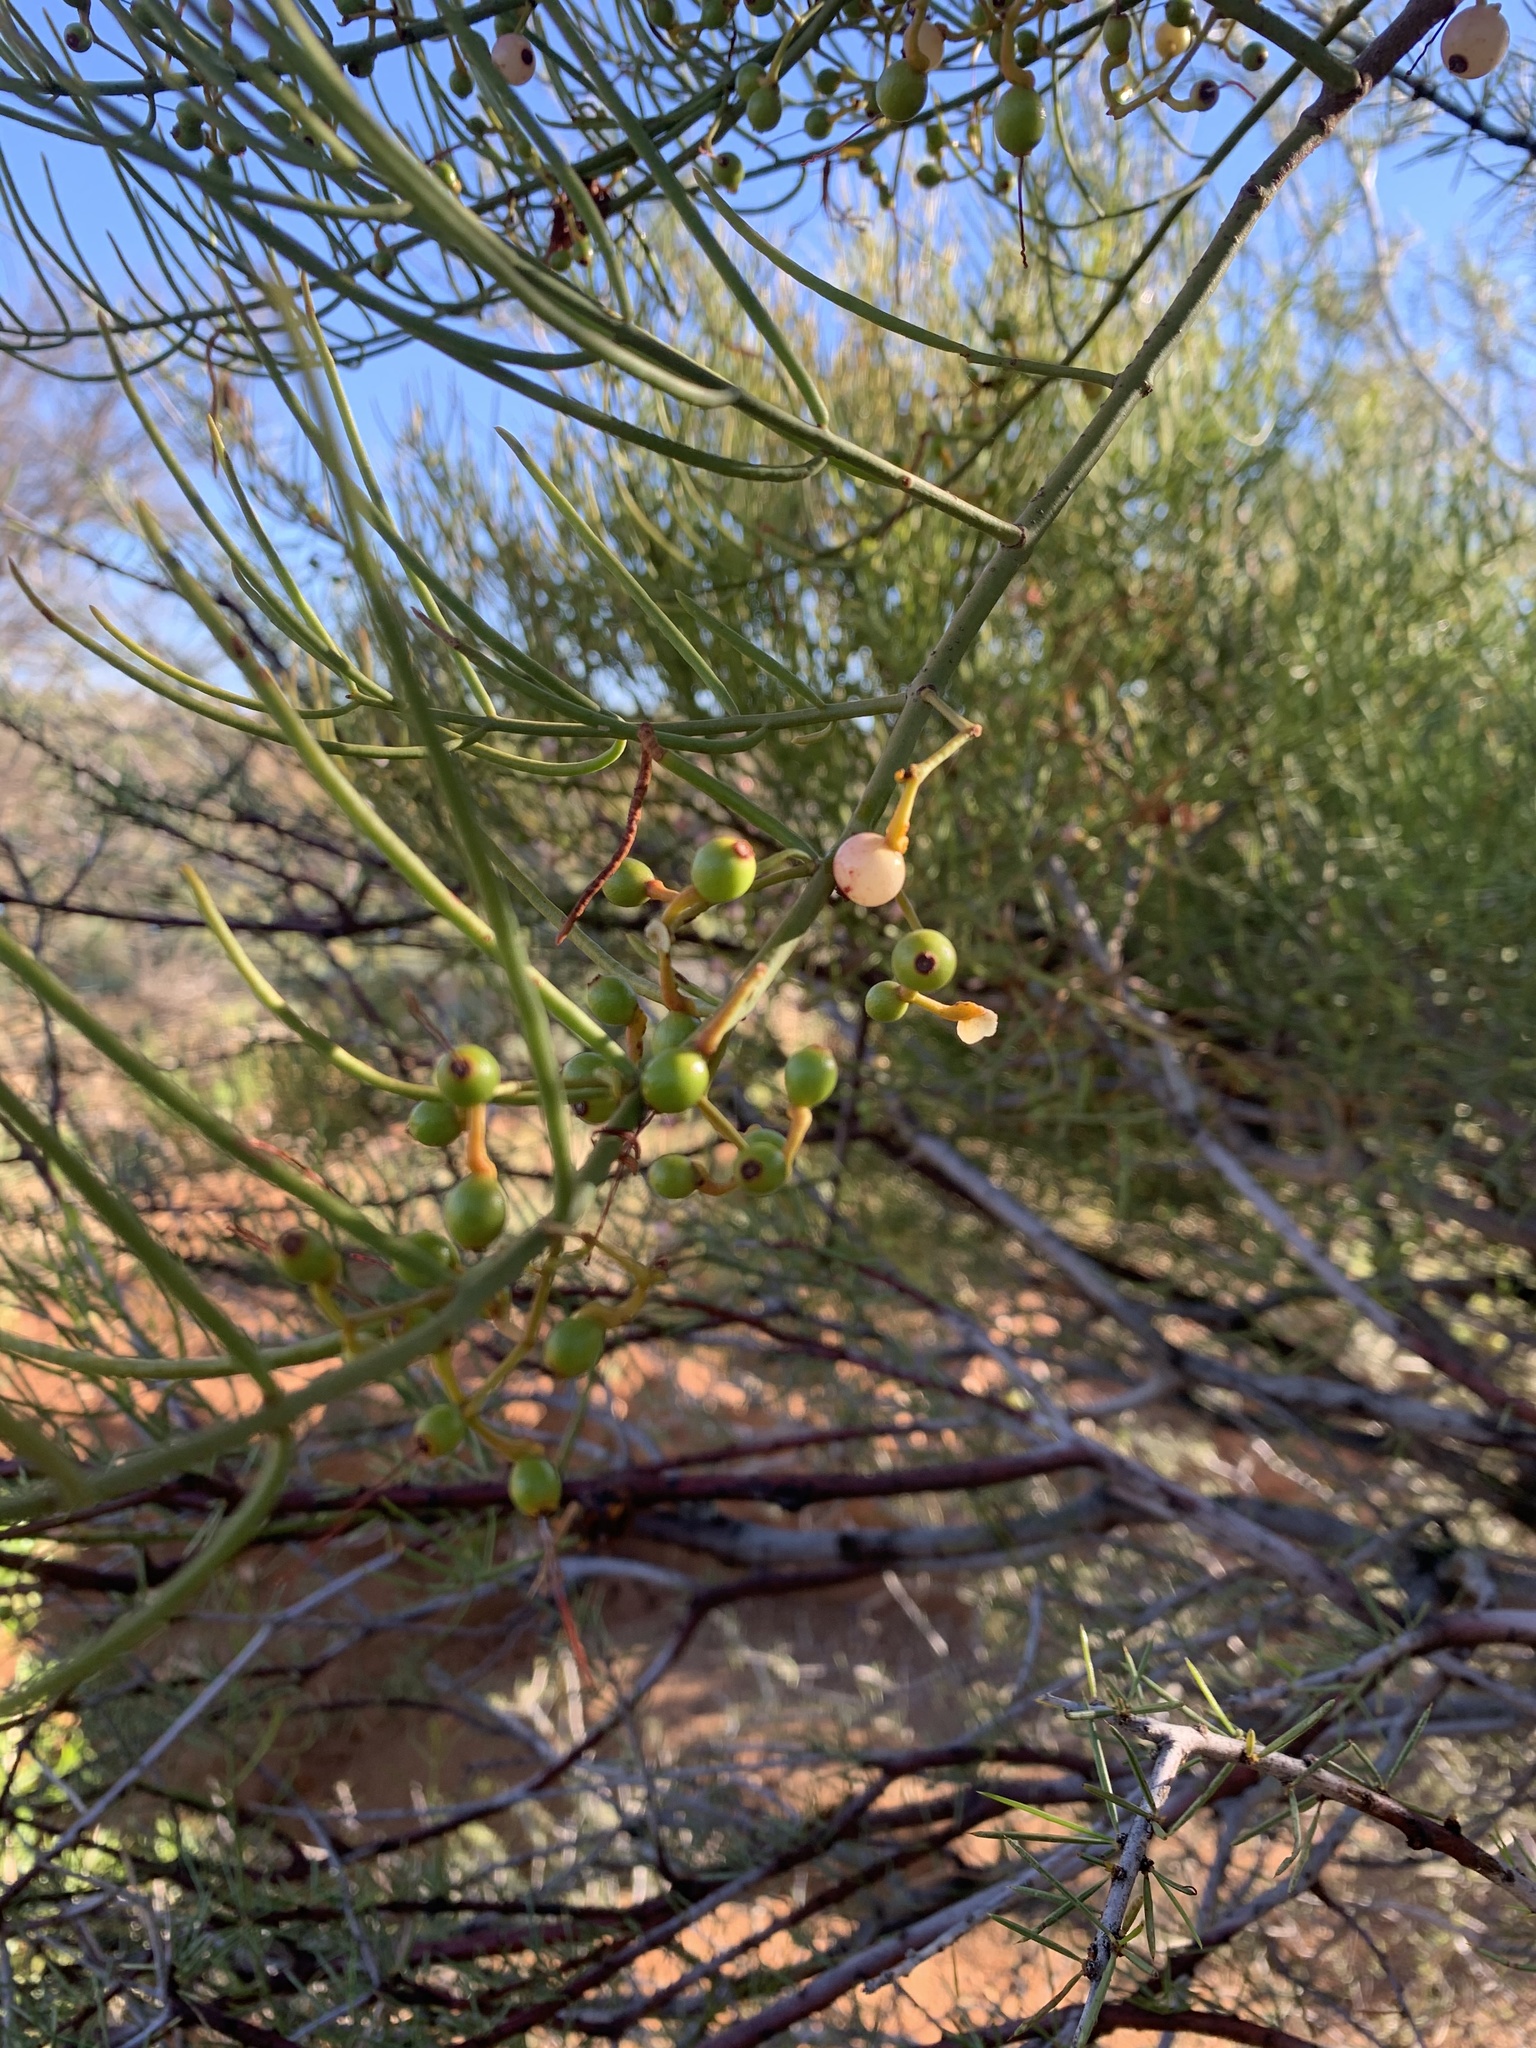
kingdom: Plantae
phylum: Tracheophyta
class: Magnoliopsida
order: Santalales
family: Loranthaceae
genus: Amyema
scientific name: Amyema preissii
